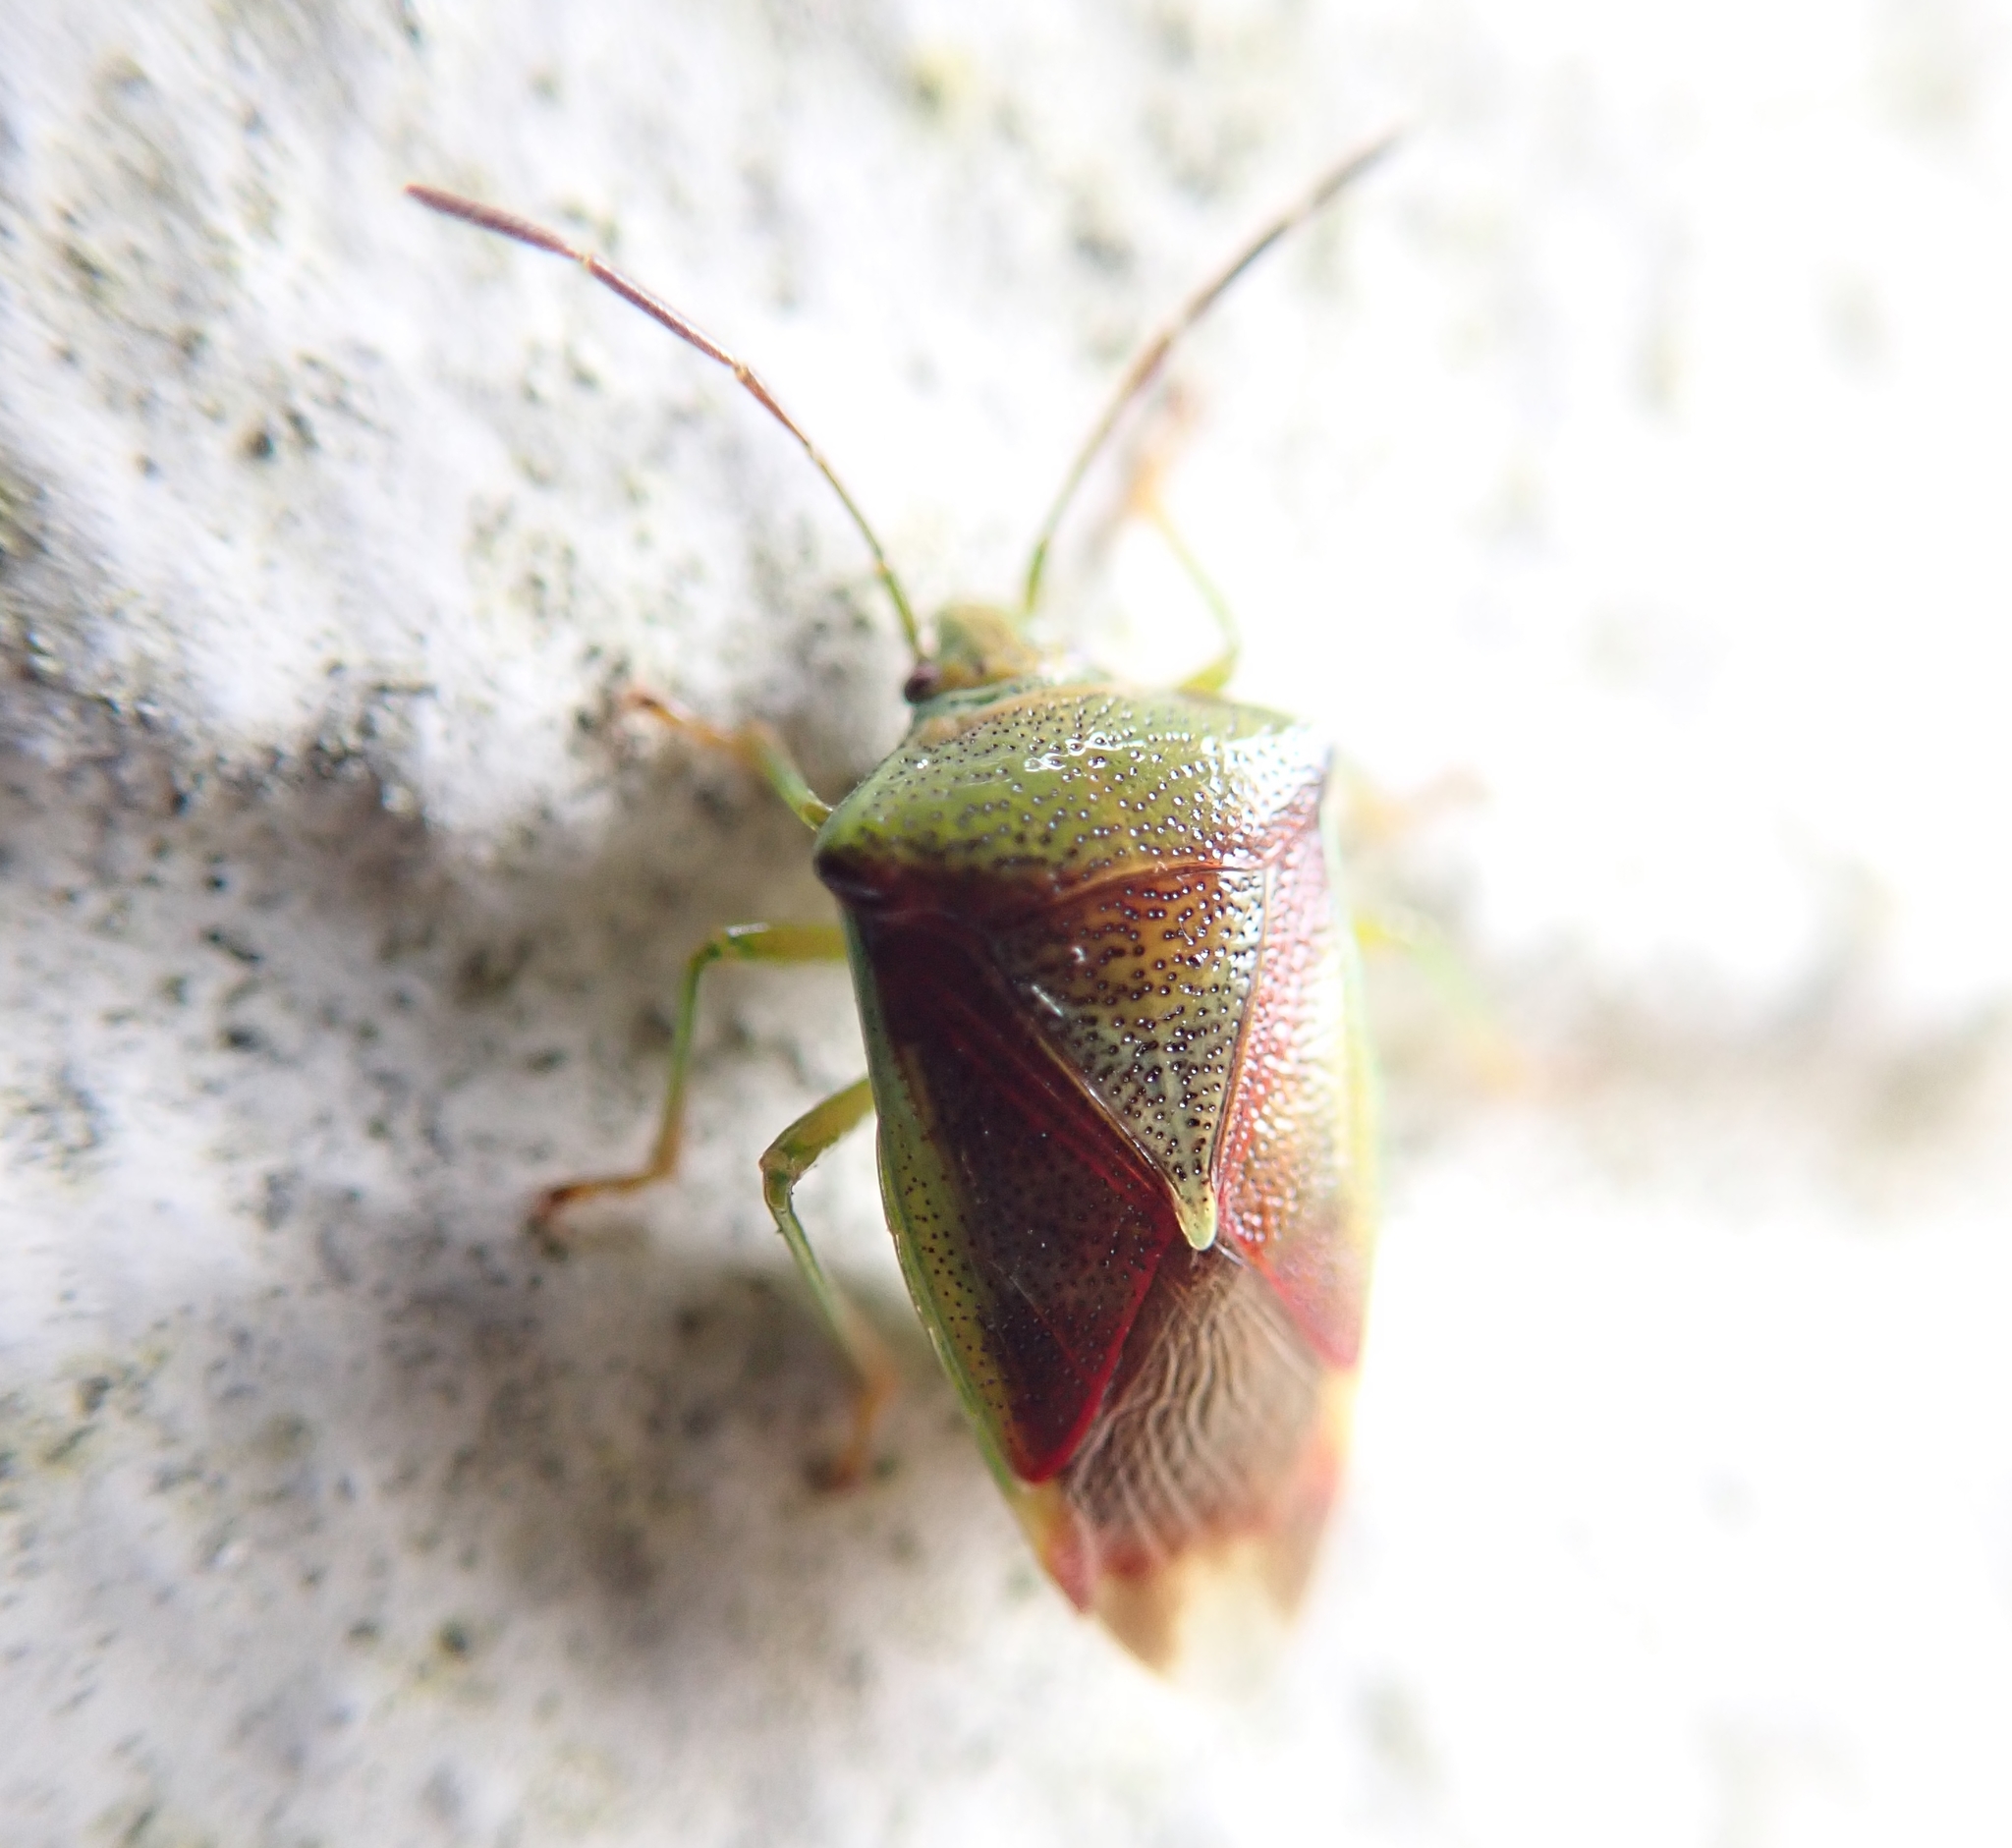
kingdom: Animalia
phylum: Arthropoda
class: Insecta
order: Hemiptera
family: Acanthosomatidae
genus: Elasmostethus
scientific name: Elasmostethus interstinctus
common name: Birch shieldbug
